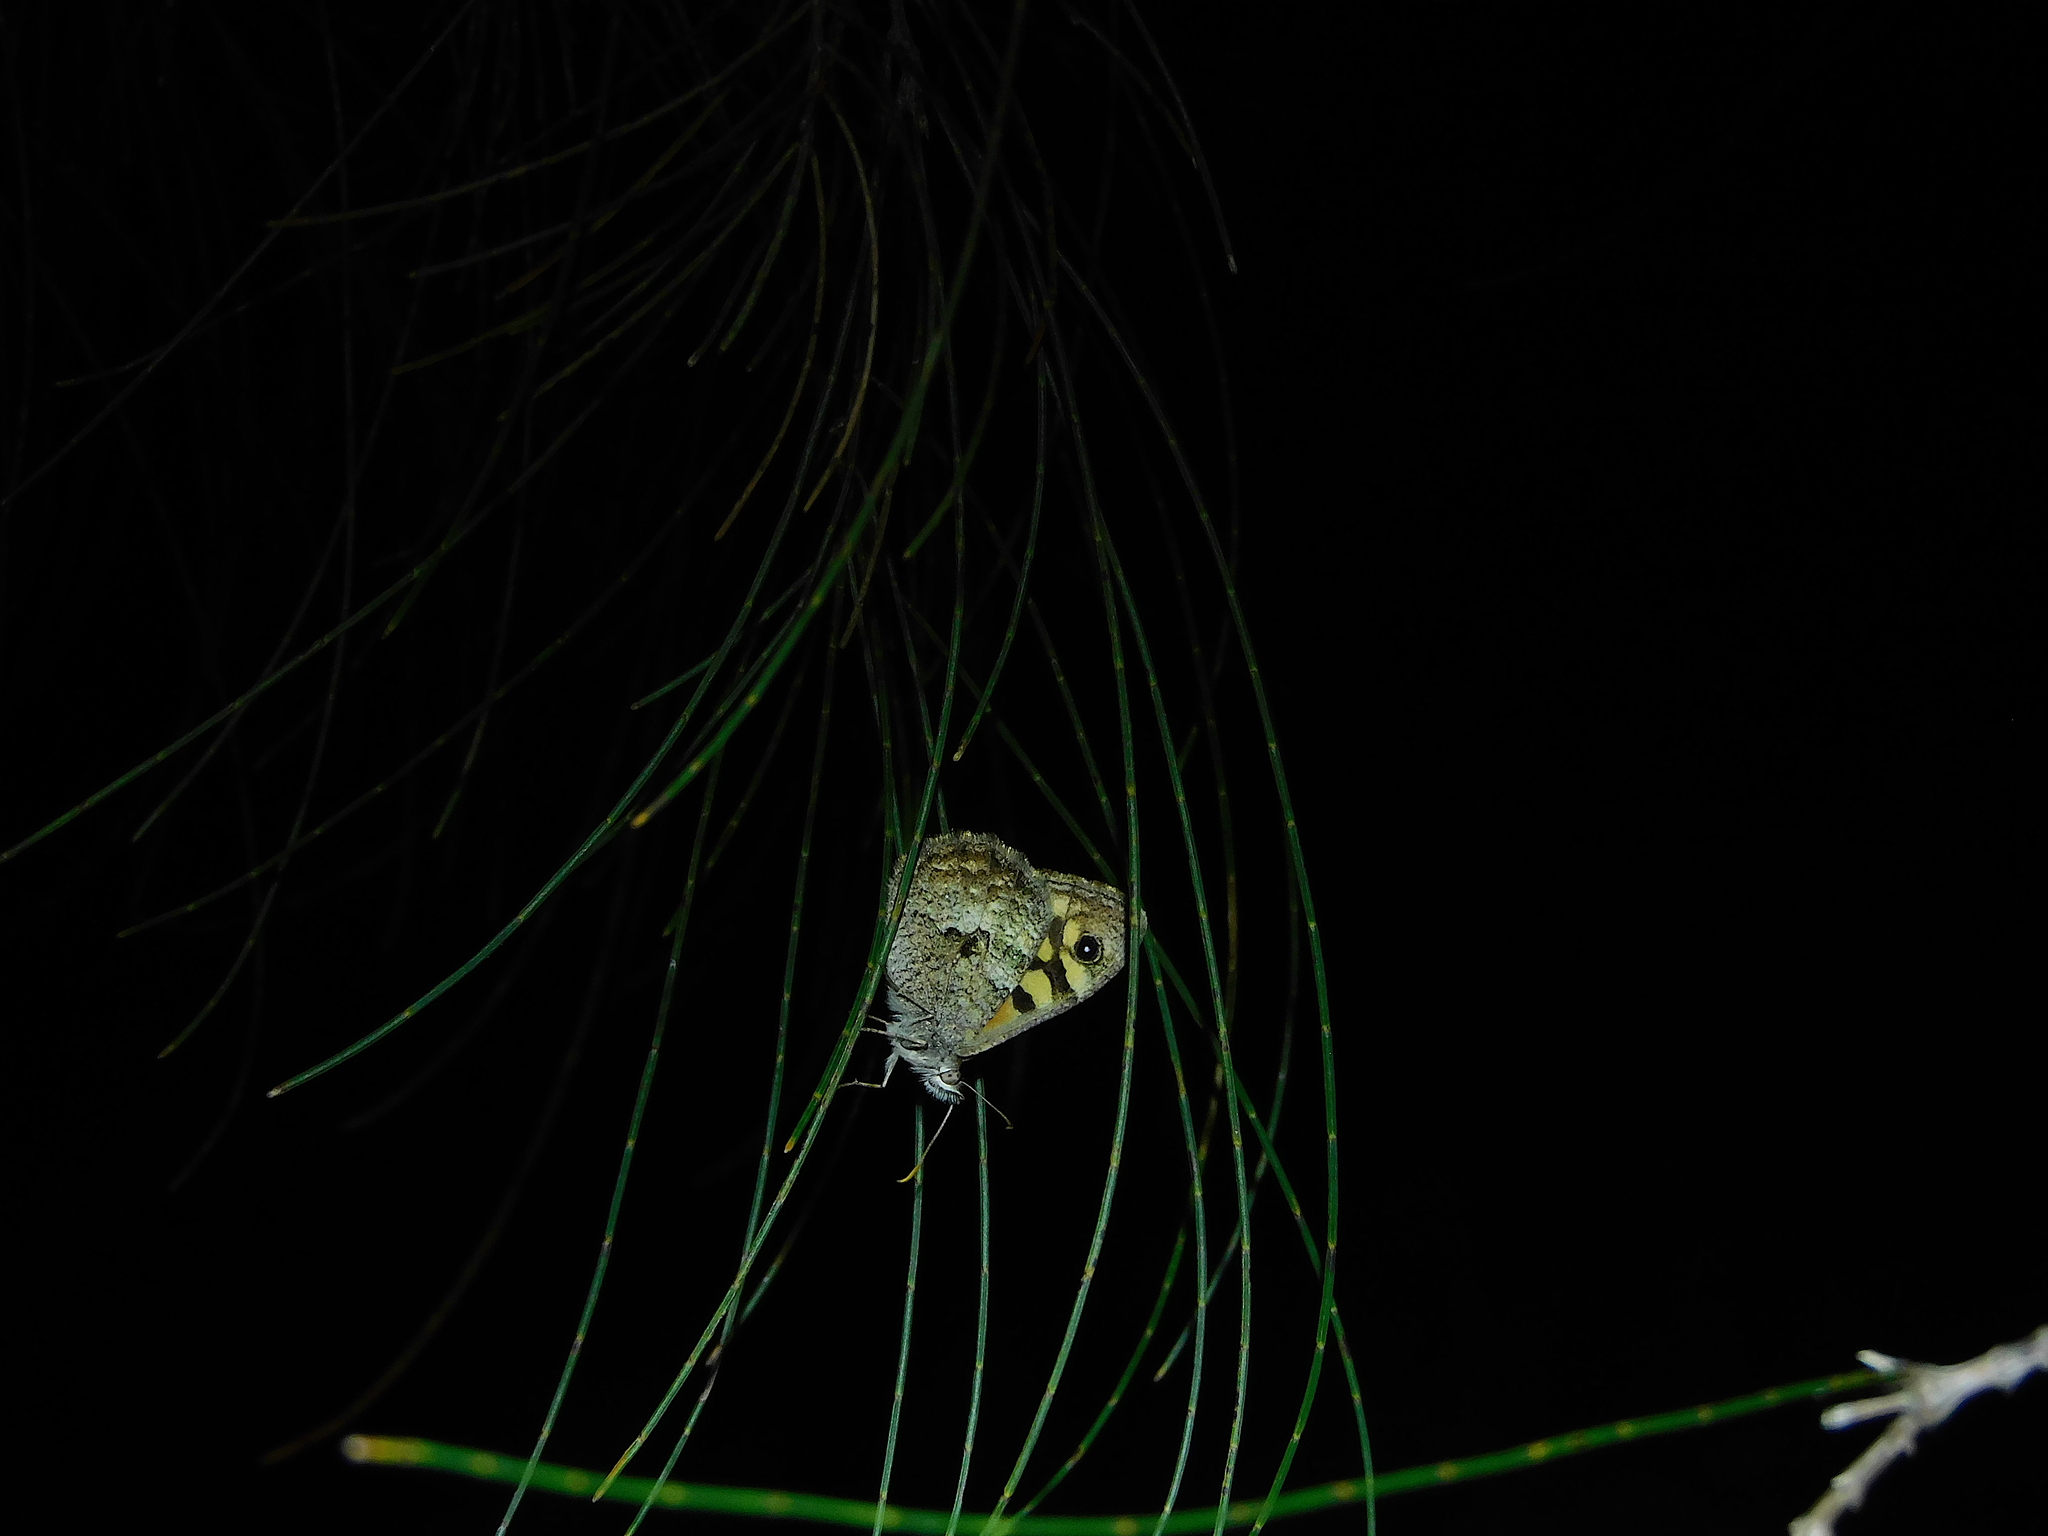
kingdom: Animalia
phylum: Arthropoda
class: Insecta
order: Lepidoptera
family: Nymphalidae
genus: Geitoneura
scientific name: Geitoneura klugii
